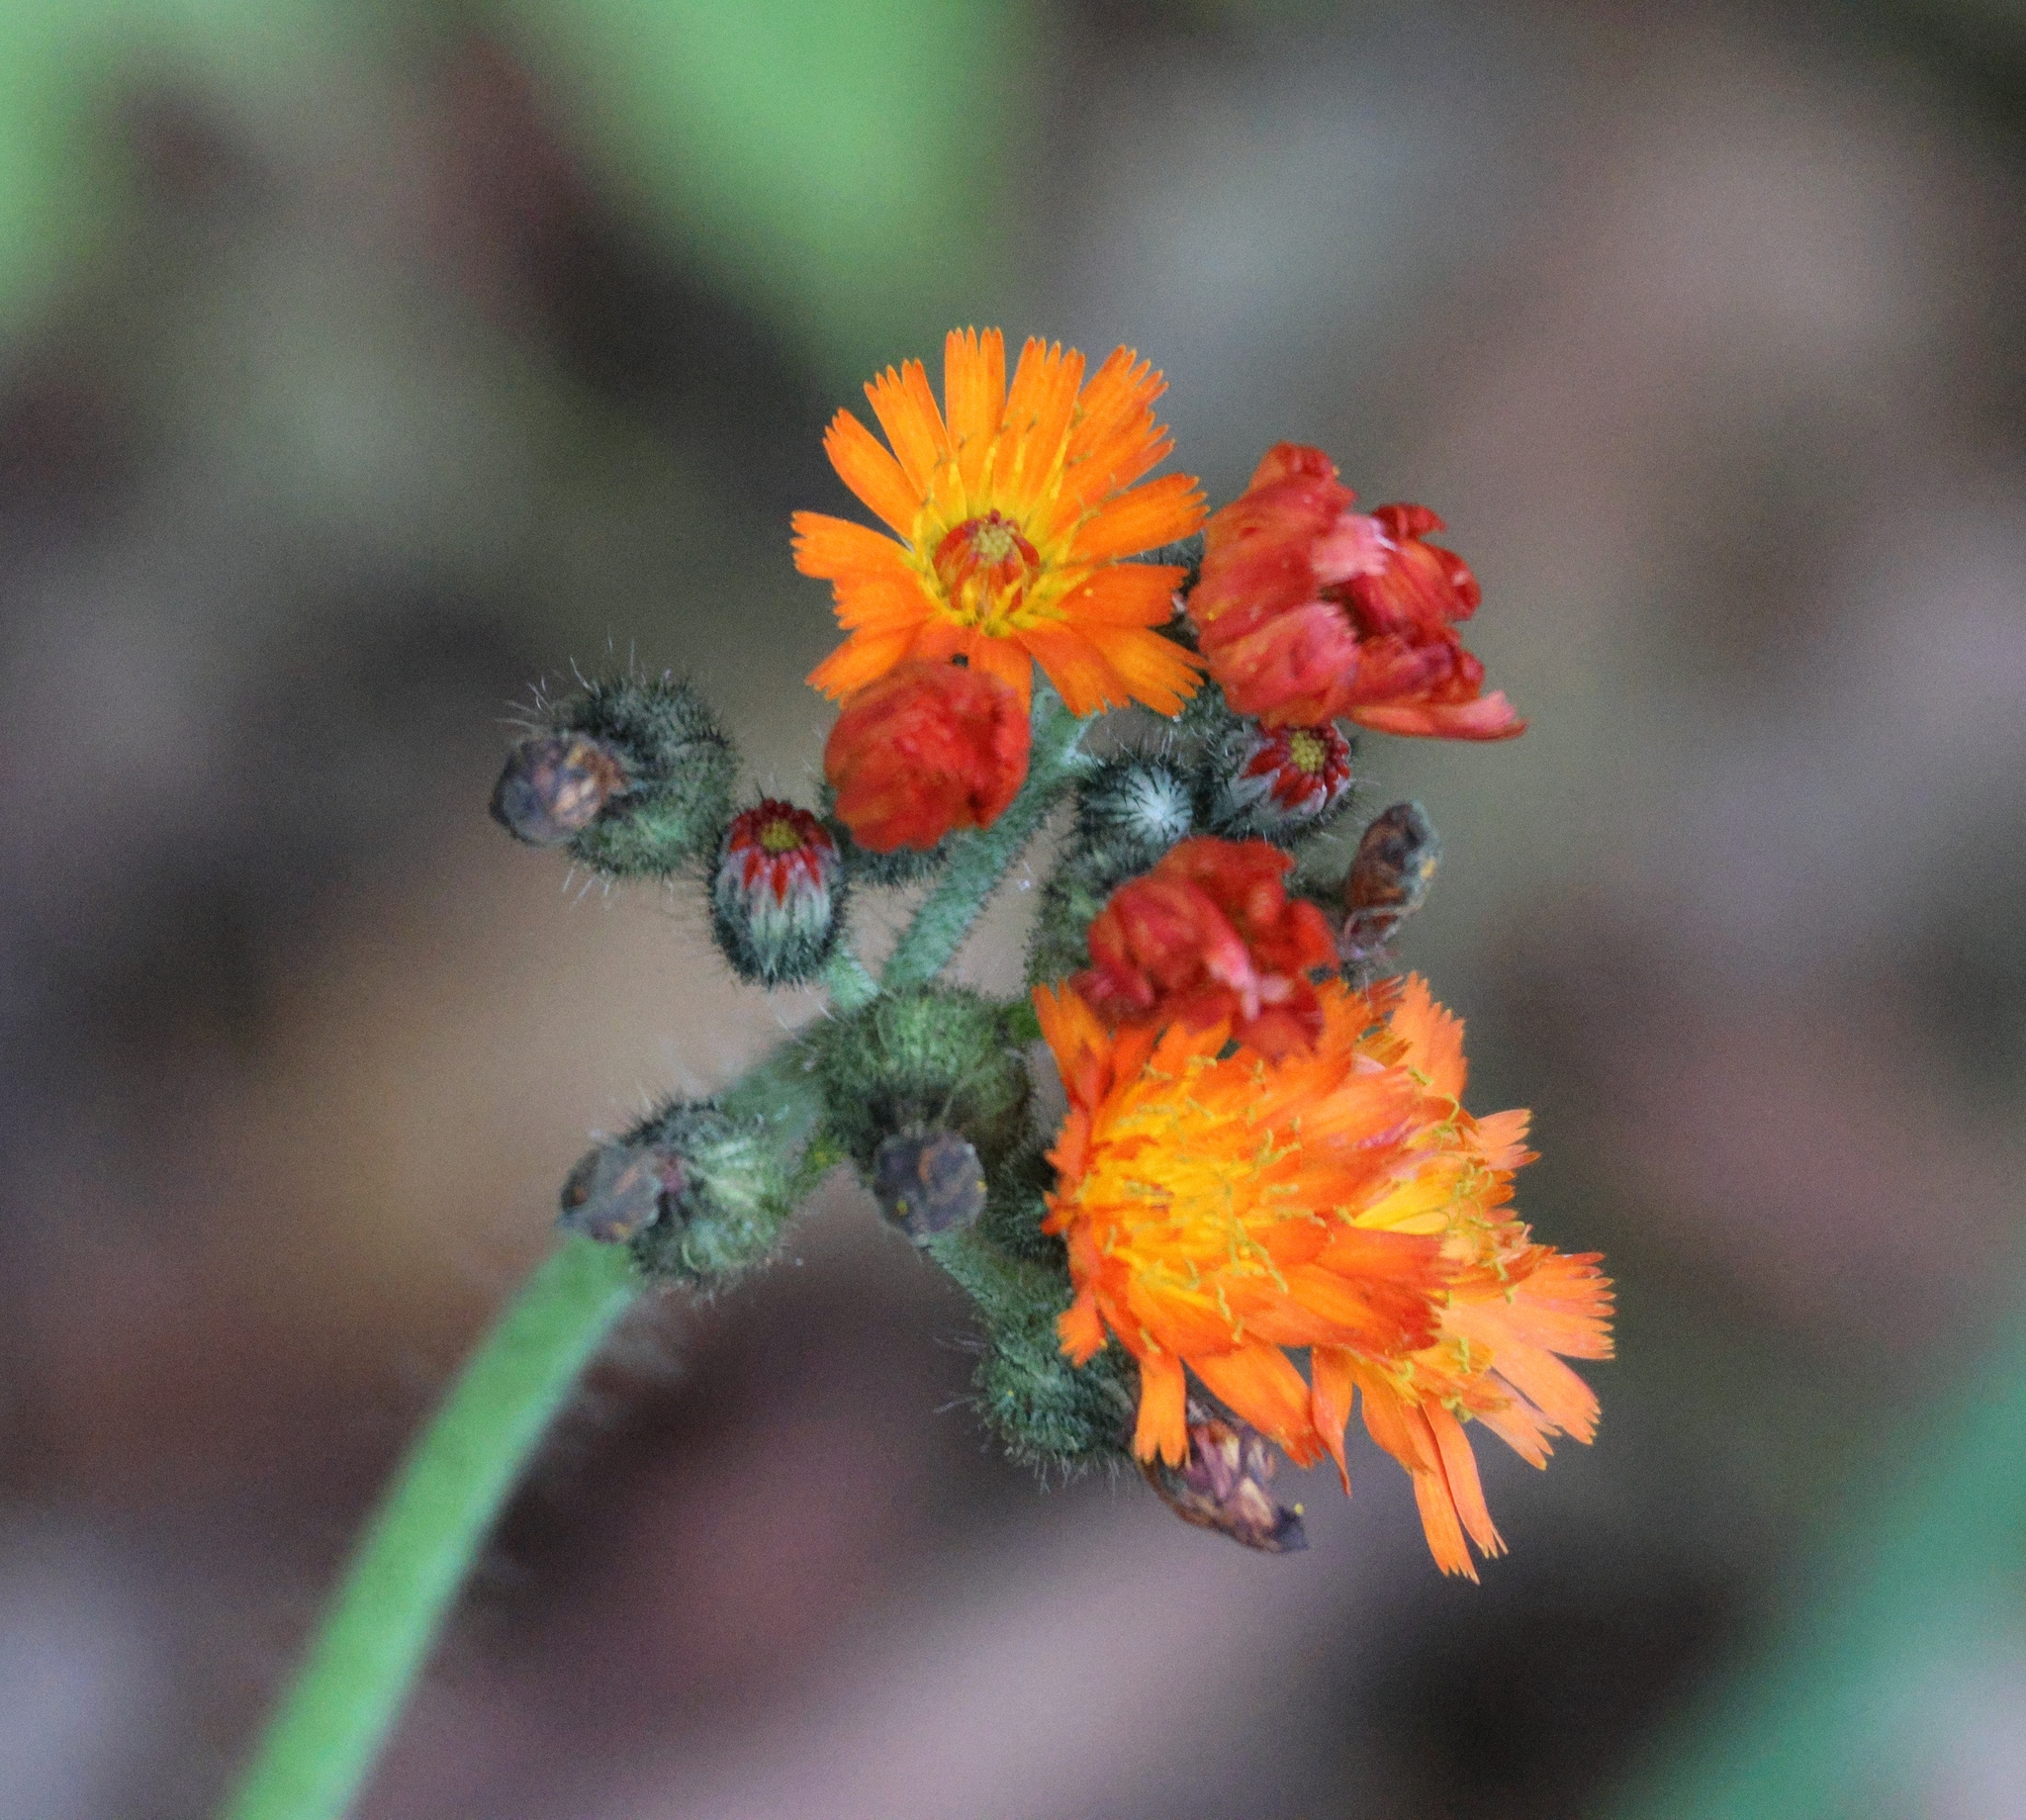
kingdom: Plantae
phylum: Tracheophyta
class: Magnoliopsida
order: Asterales
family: Asteraceae
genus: Pilosella
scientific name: Pilosella aurantiaca
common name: Fox-and-cubs
